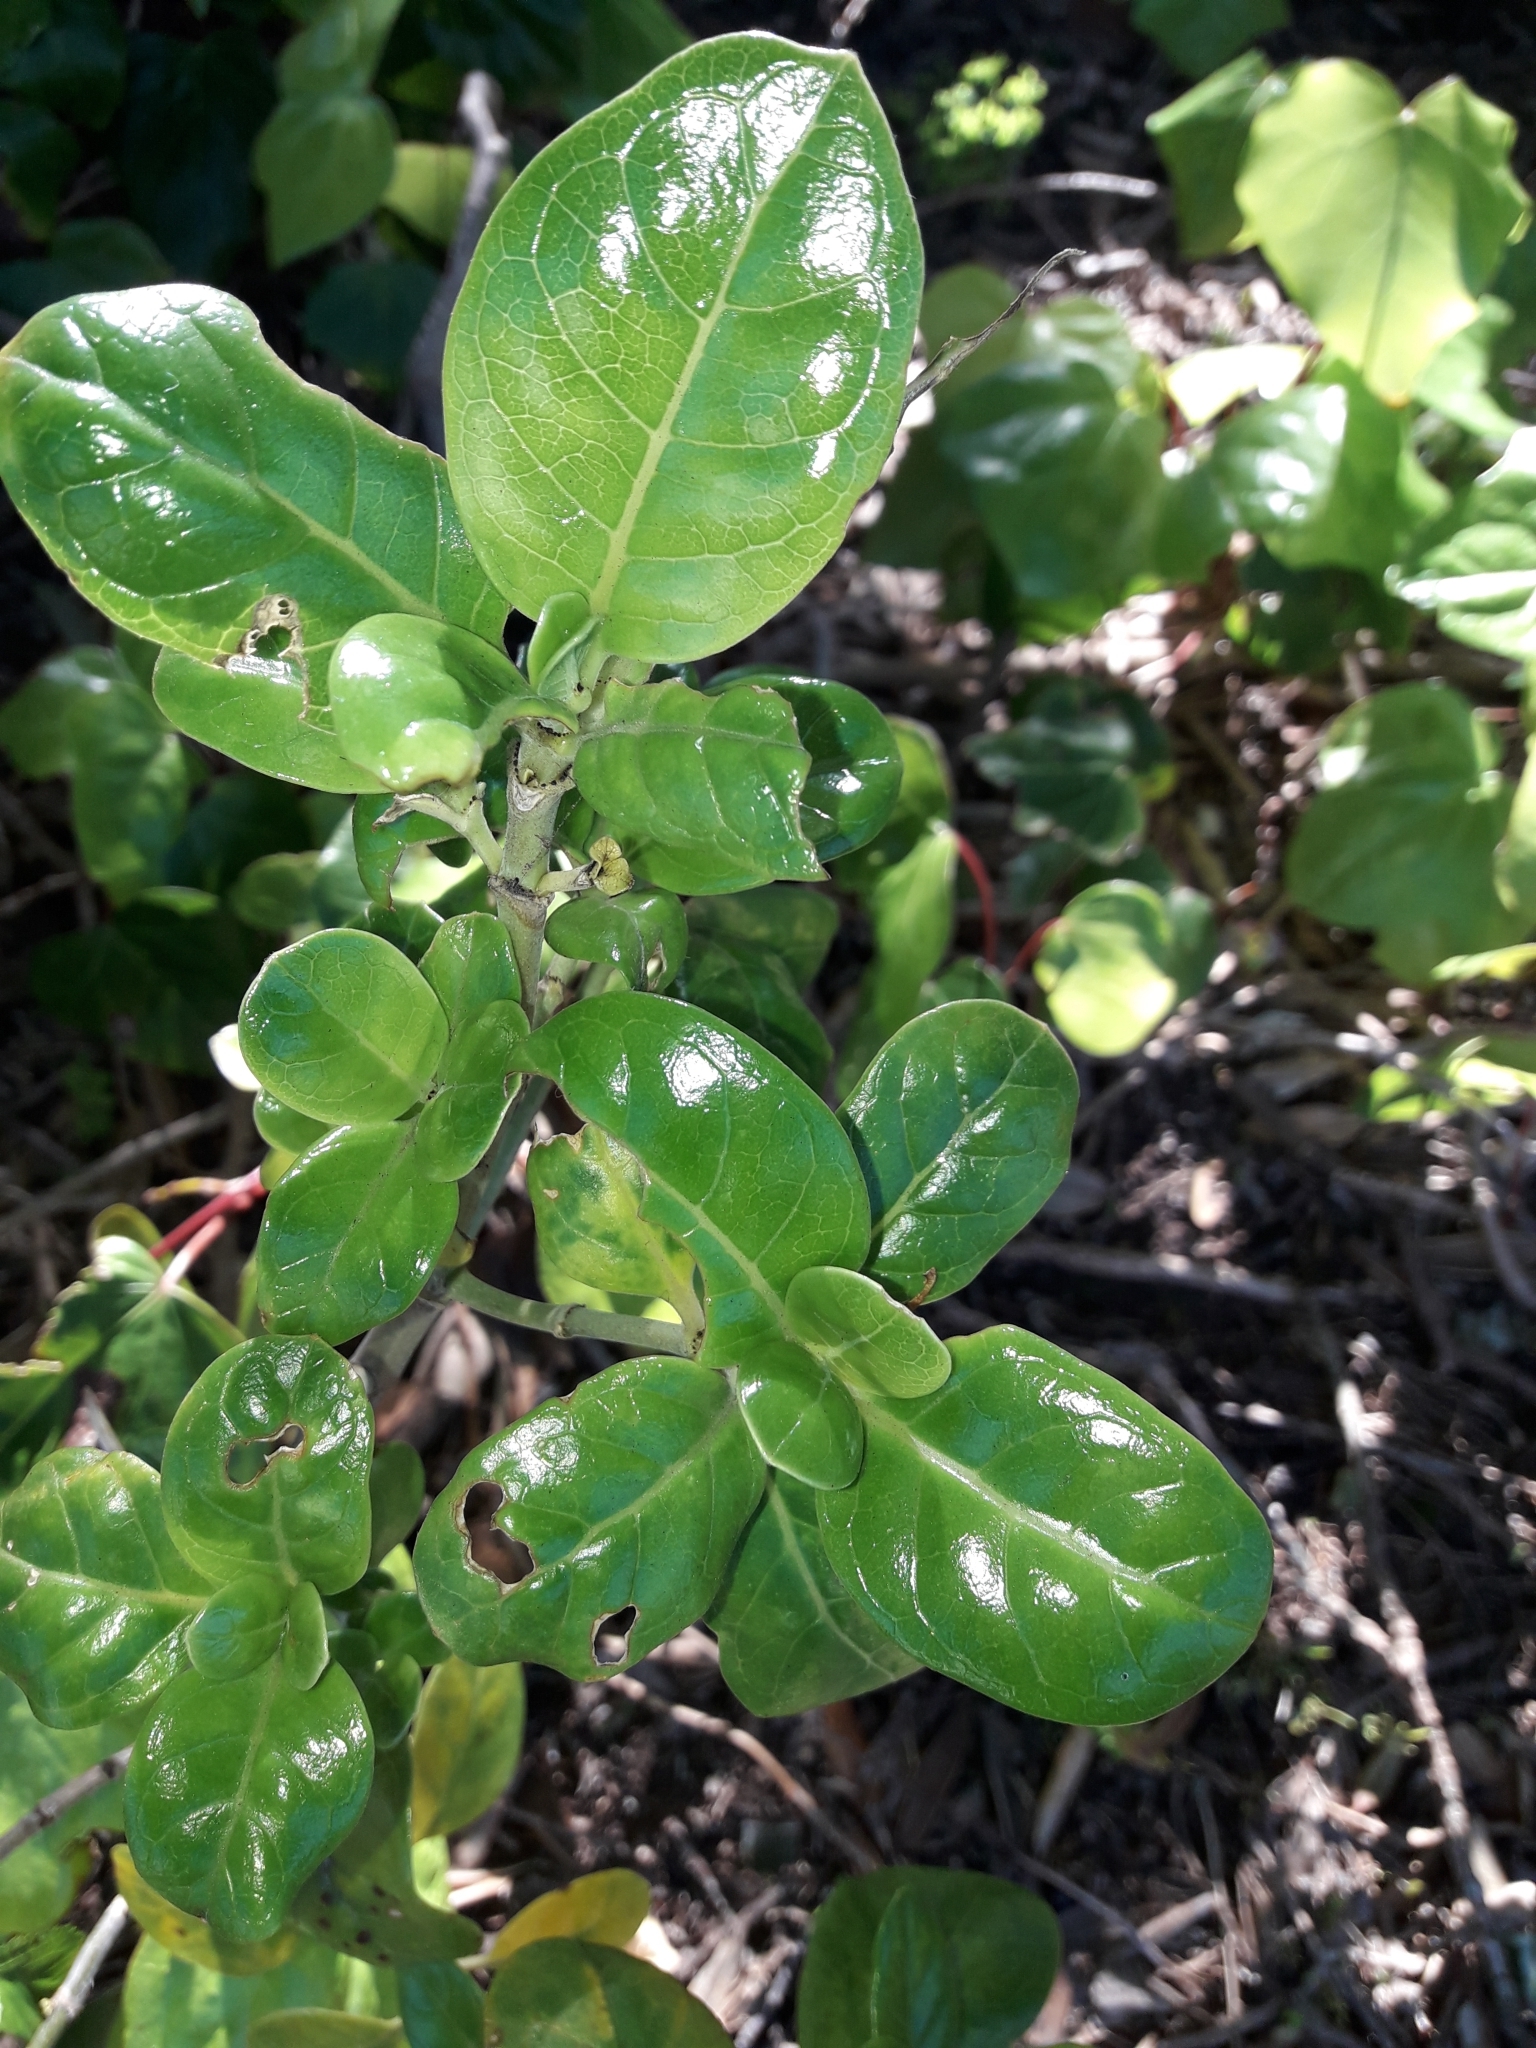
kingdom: Plantae
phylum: Tracheophyta
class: Magnoliopsida
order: Gentianales
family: Rubiaceae
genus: Coprosma
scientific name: Coprosma repens
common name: Tree bedstraw
